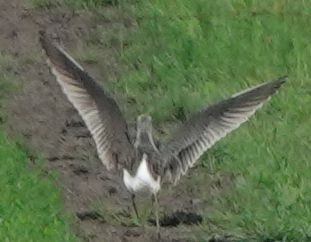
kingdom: Animalia
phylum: Chordata
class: Aves
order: Charadriiformes
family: Scolopacidae
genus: Tringa
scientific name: Tringa glareola
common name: Wood sandpiper
